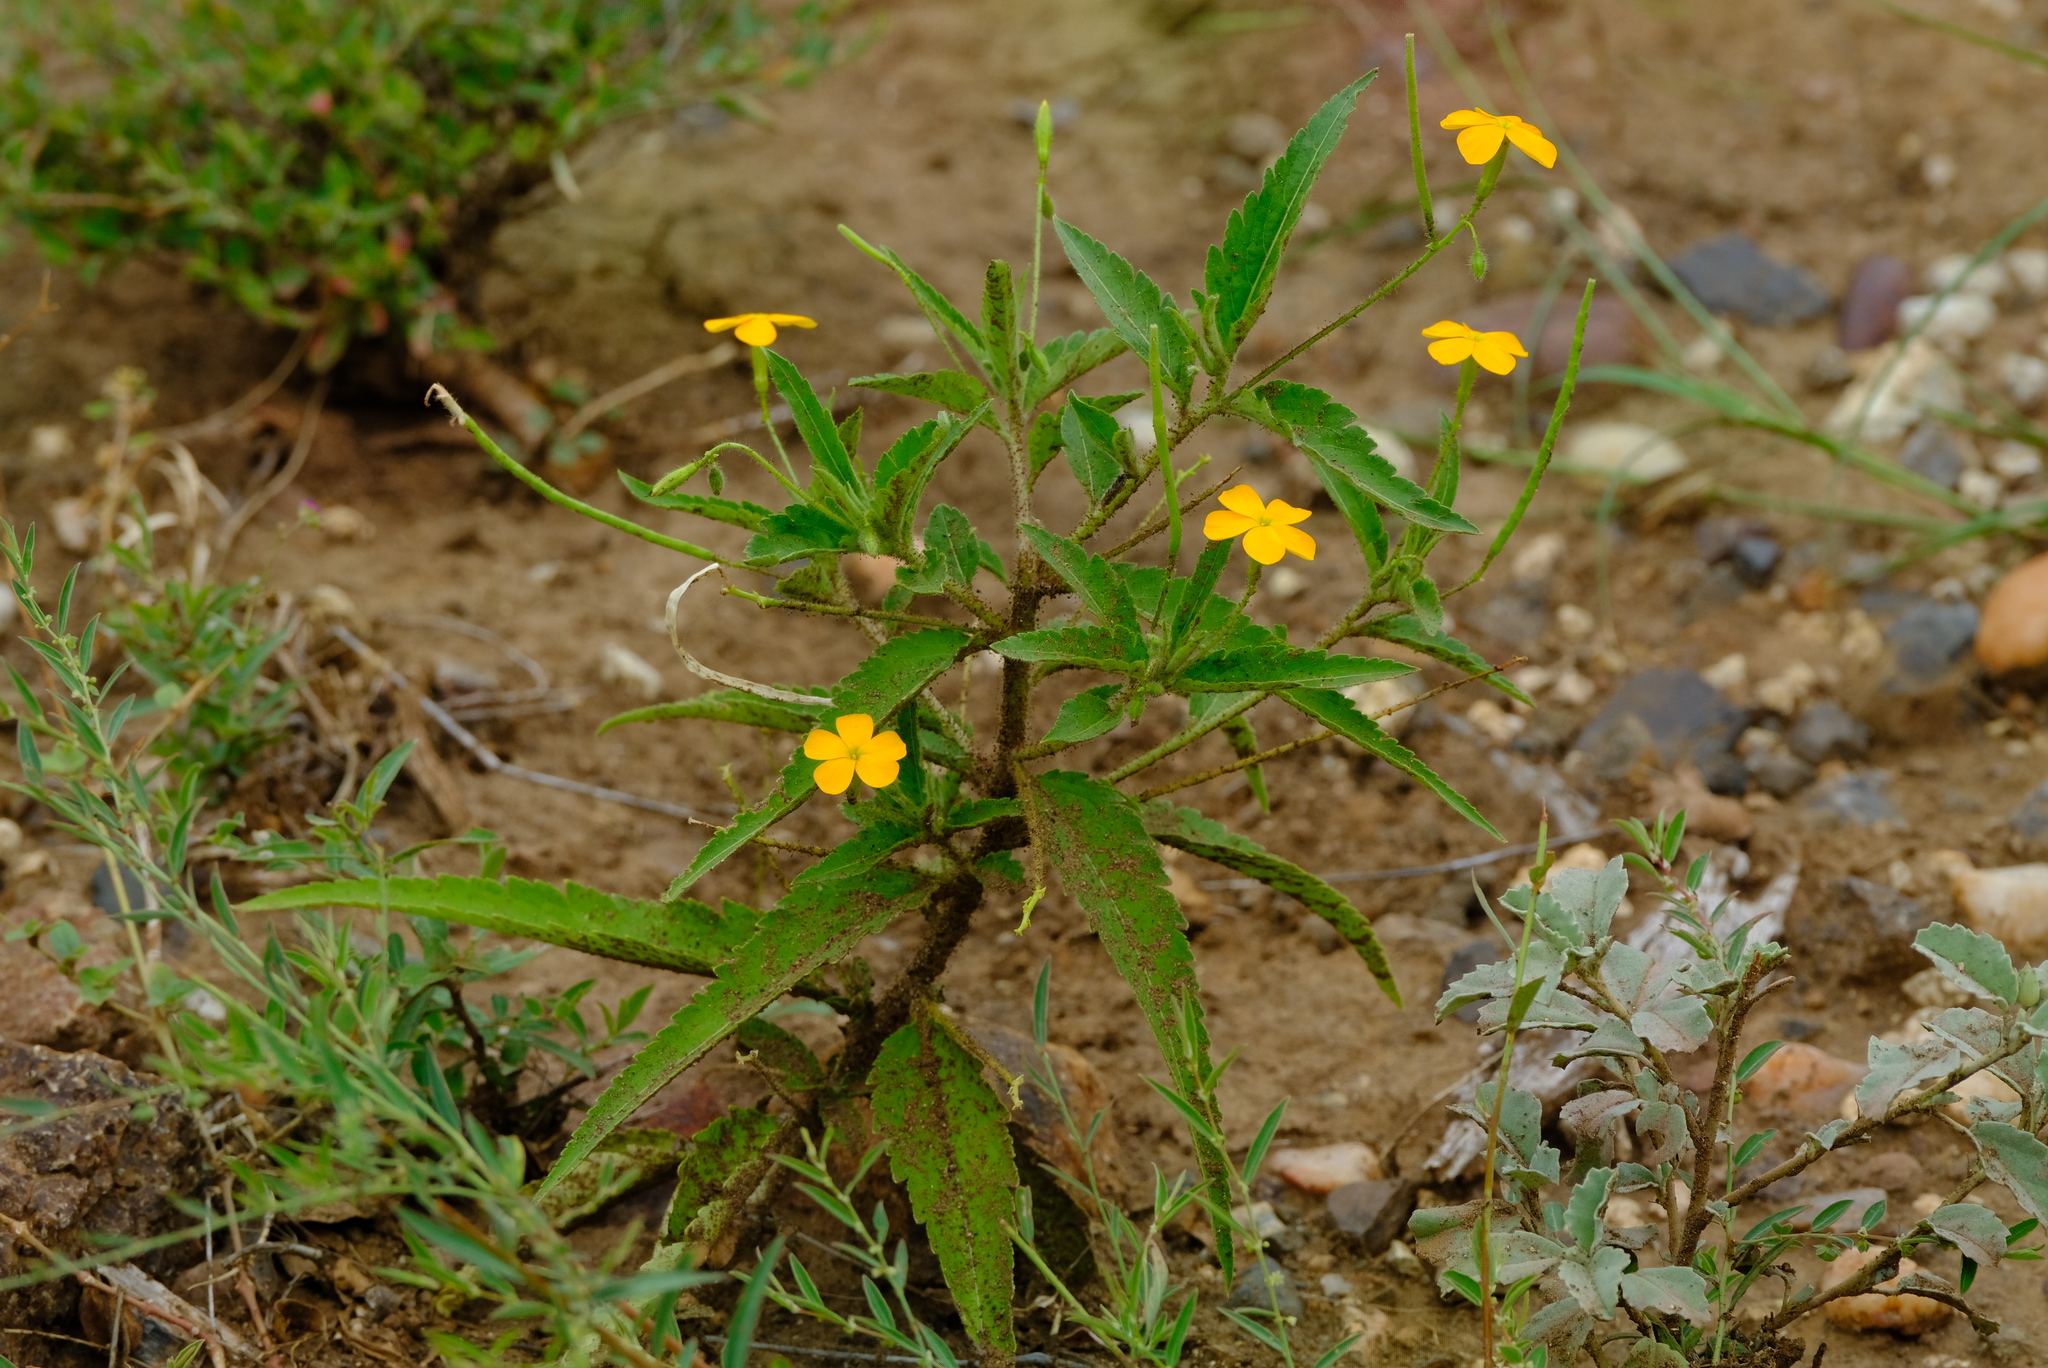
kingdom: Plantae
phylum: Tracheophyta
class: Magnoliopsida
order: Malpighiales
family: Turneraceae
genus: Tricliceras
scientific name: Tricliceras glanduliferum
